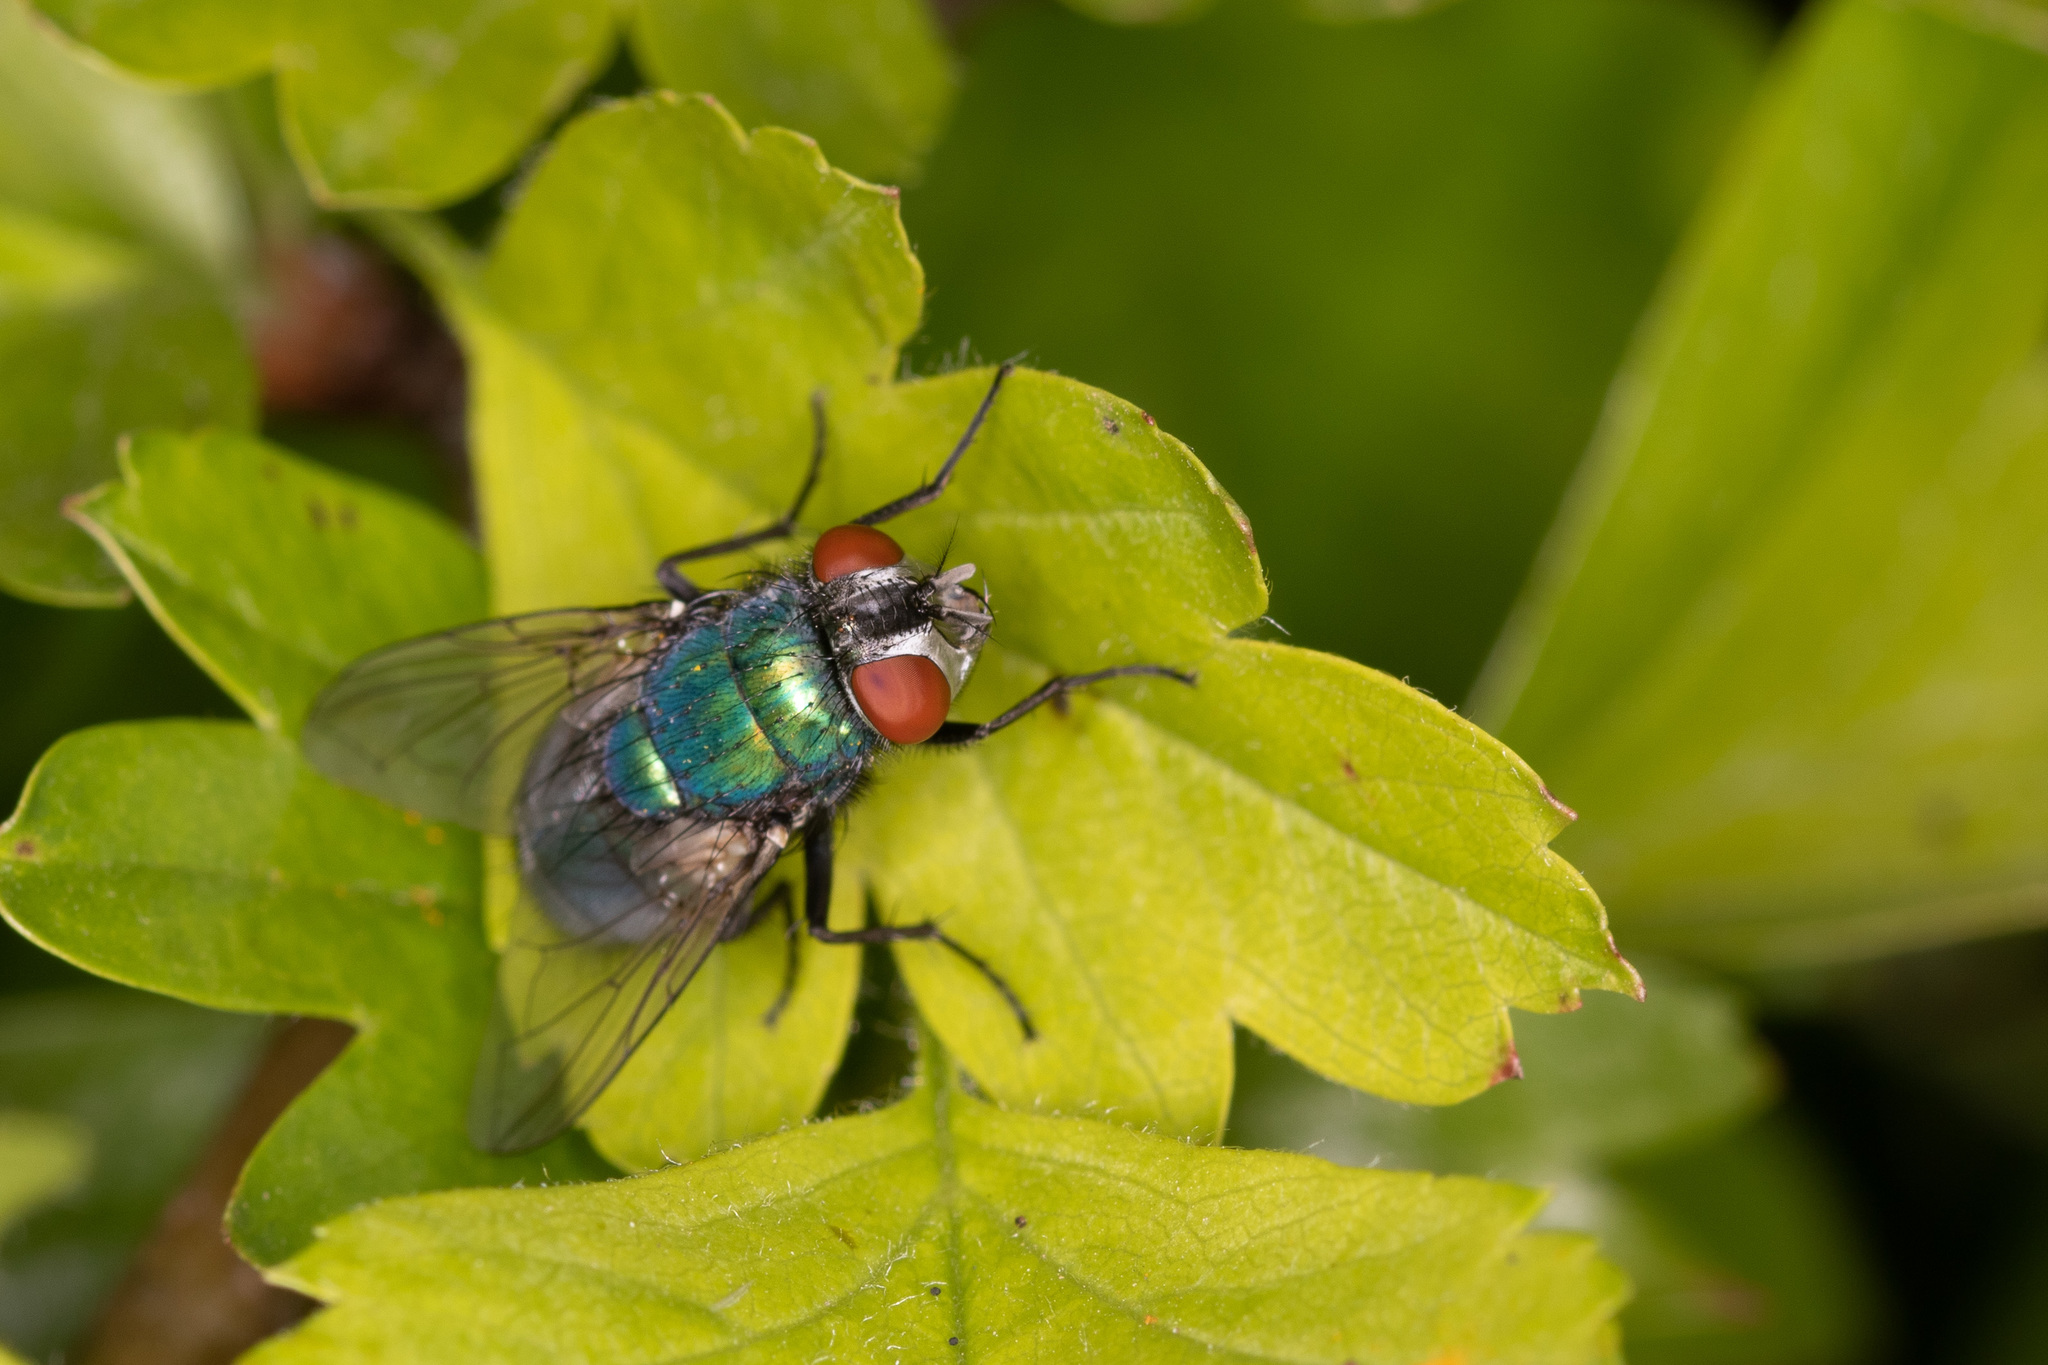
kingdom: Animalia
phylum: Arthropoda
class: Insecta
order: Diptera
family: Calliphoridae
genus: Lucilia
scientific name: Lucilia sericata
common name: Blow fly
